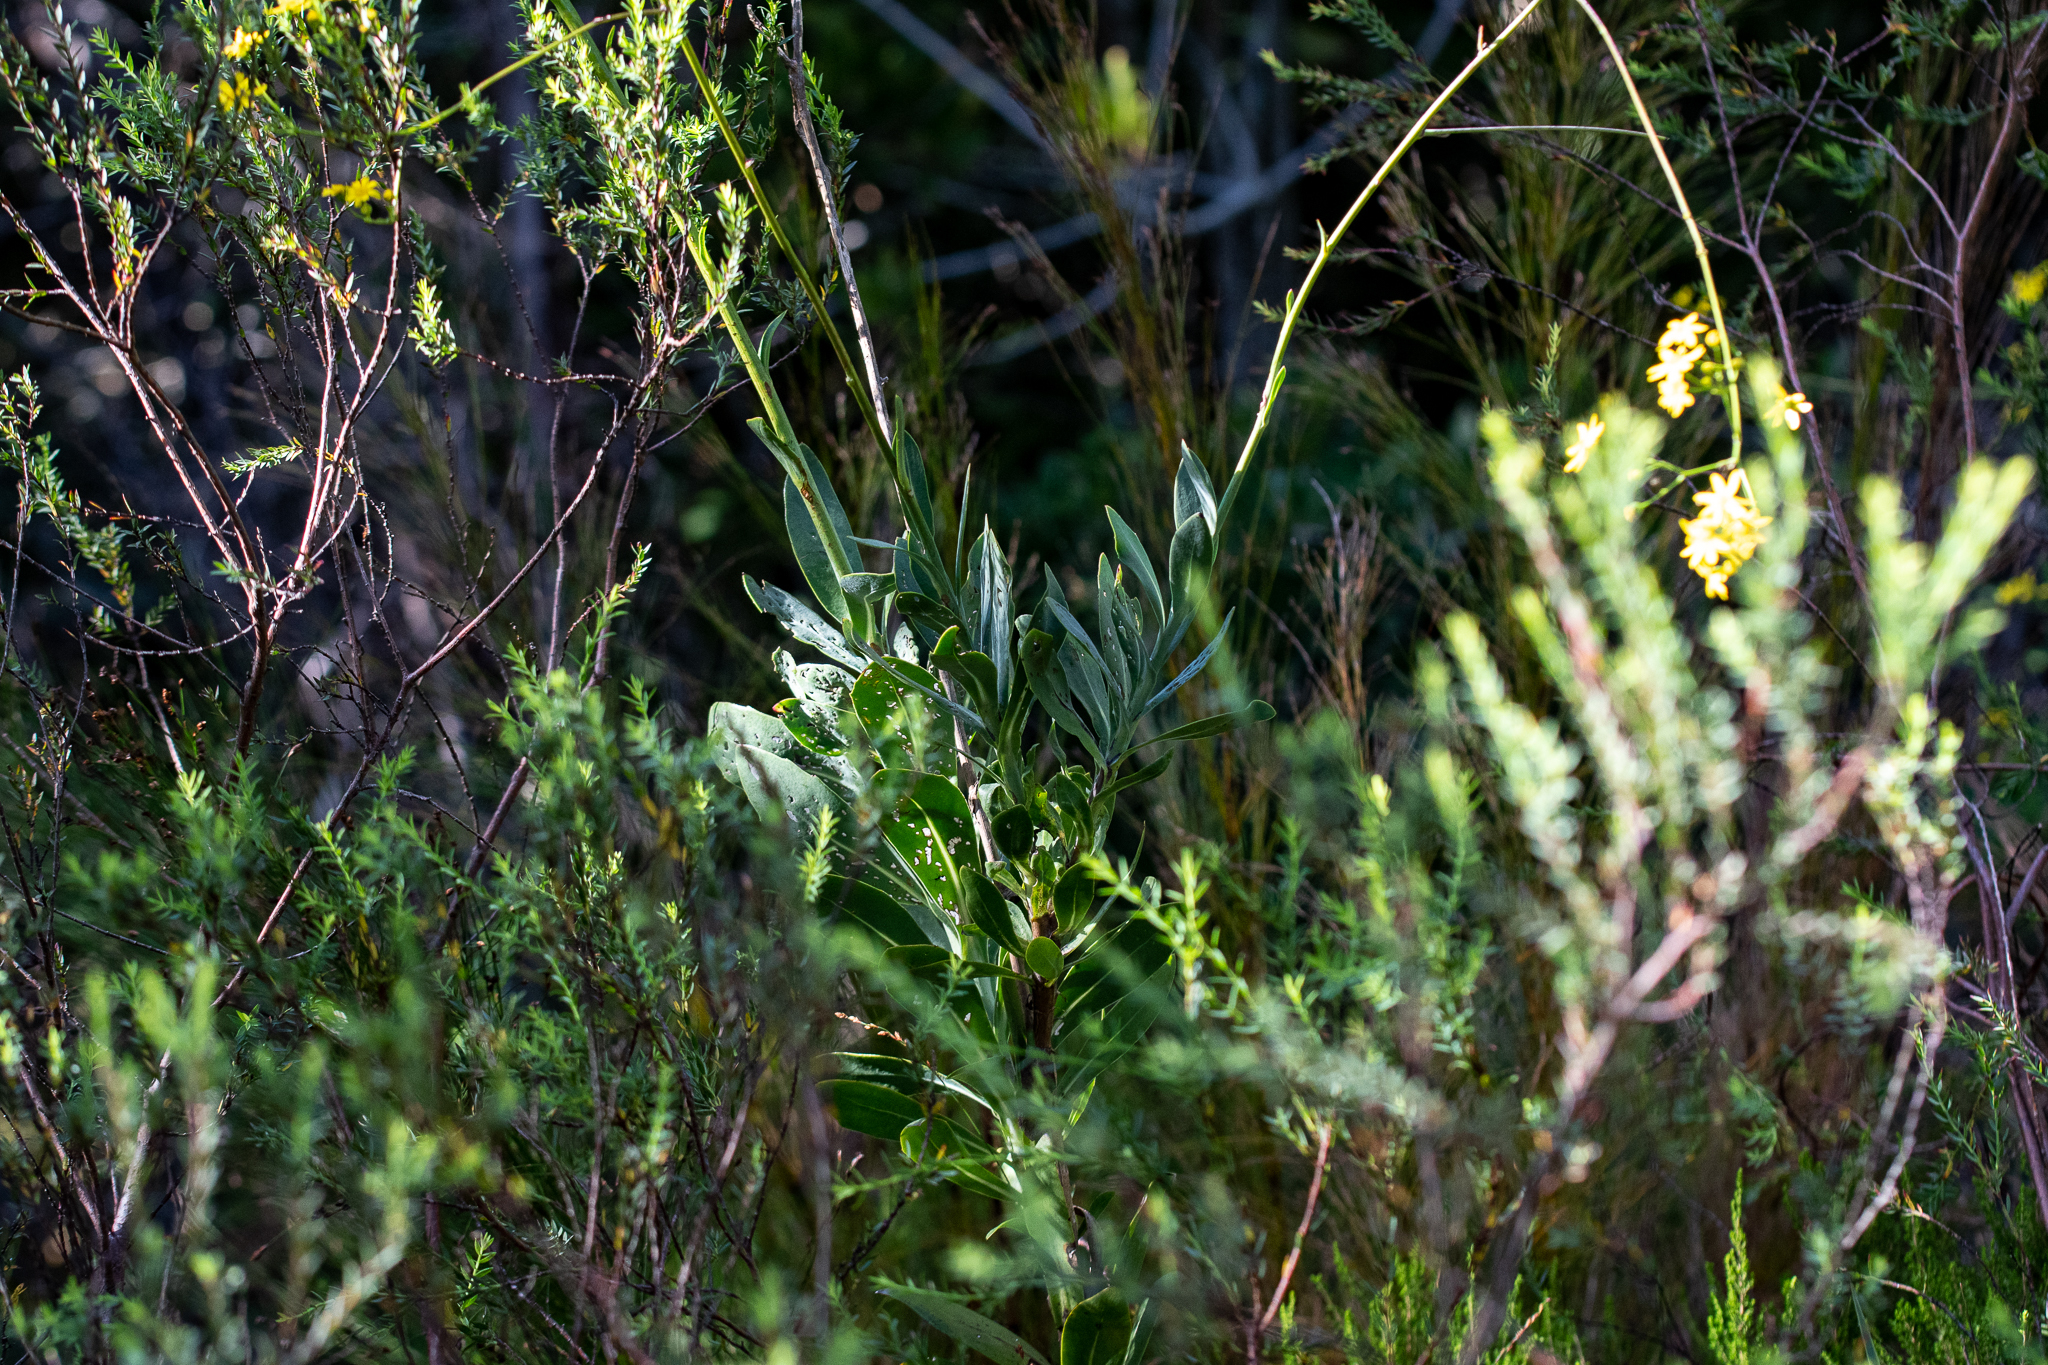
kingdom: Plantae
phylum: Tracheophyta
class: Magnoliopsida
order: Asterales
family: Asteraceae
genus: Othonna
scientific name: Othonna quinquedentata
